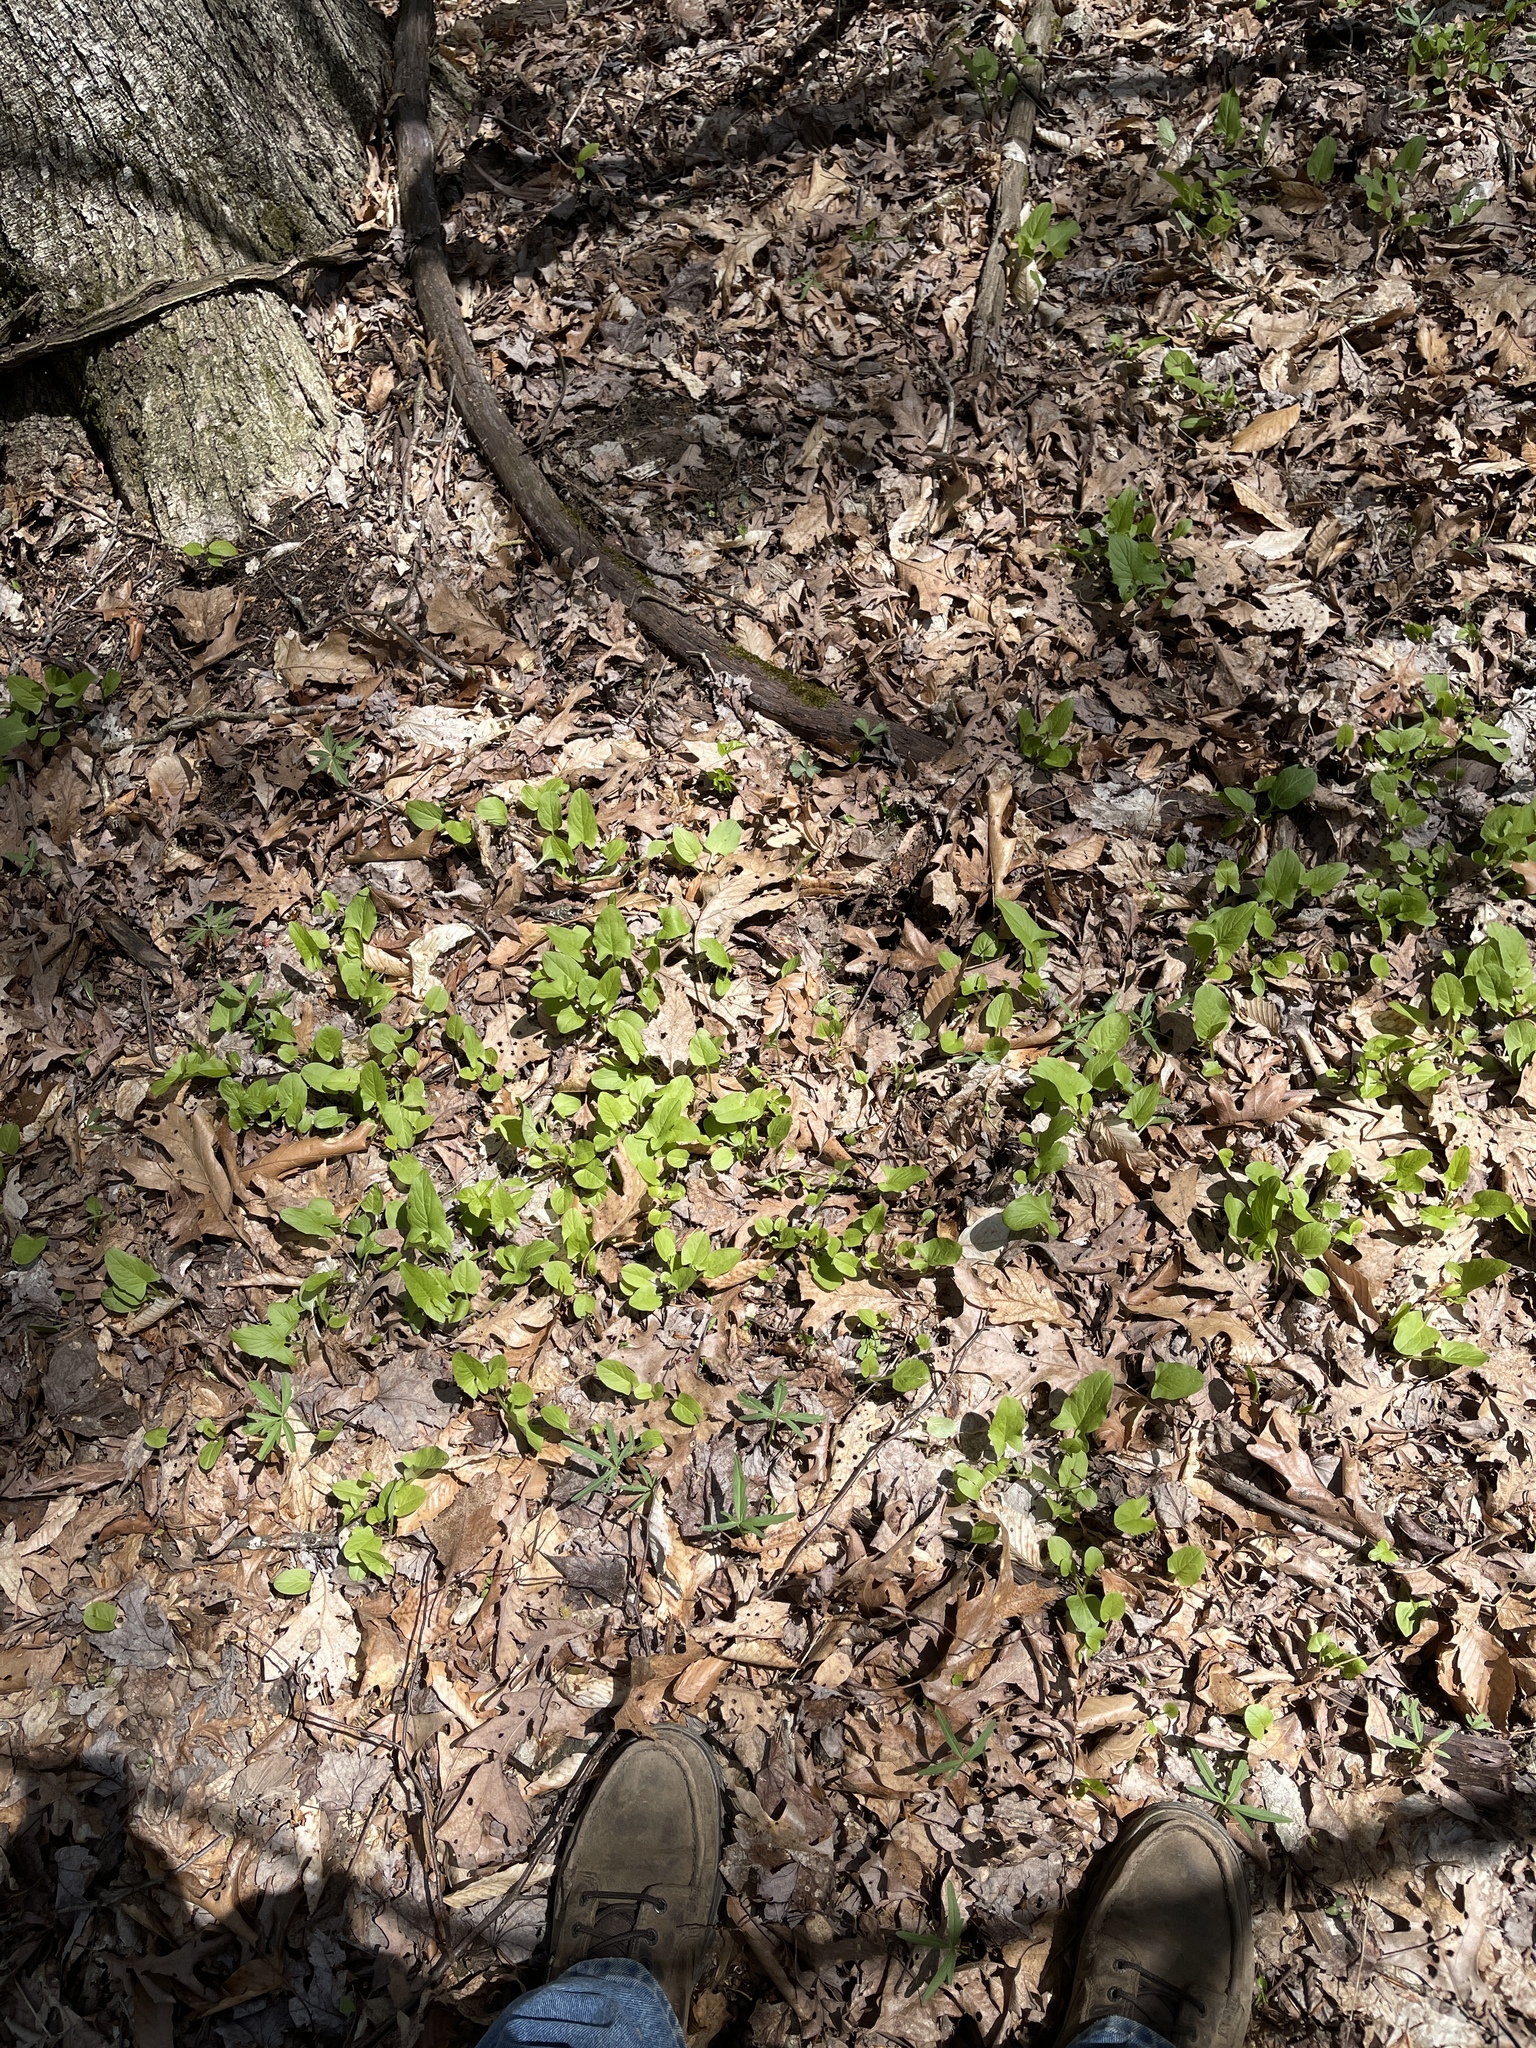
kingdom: Plantae
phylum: Tracheophyta
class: Magnoliopsida
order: Asterales
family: Asteraceae
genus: Nabalus
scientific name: Nabalus crepidineus
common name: Nodding rattlesnakeroot
